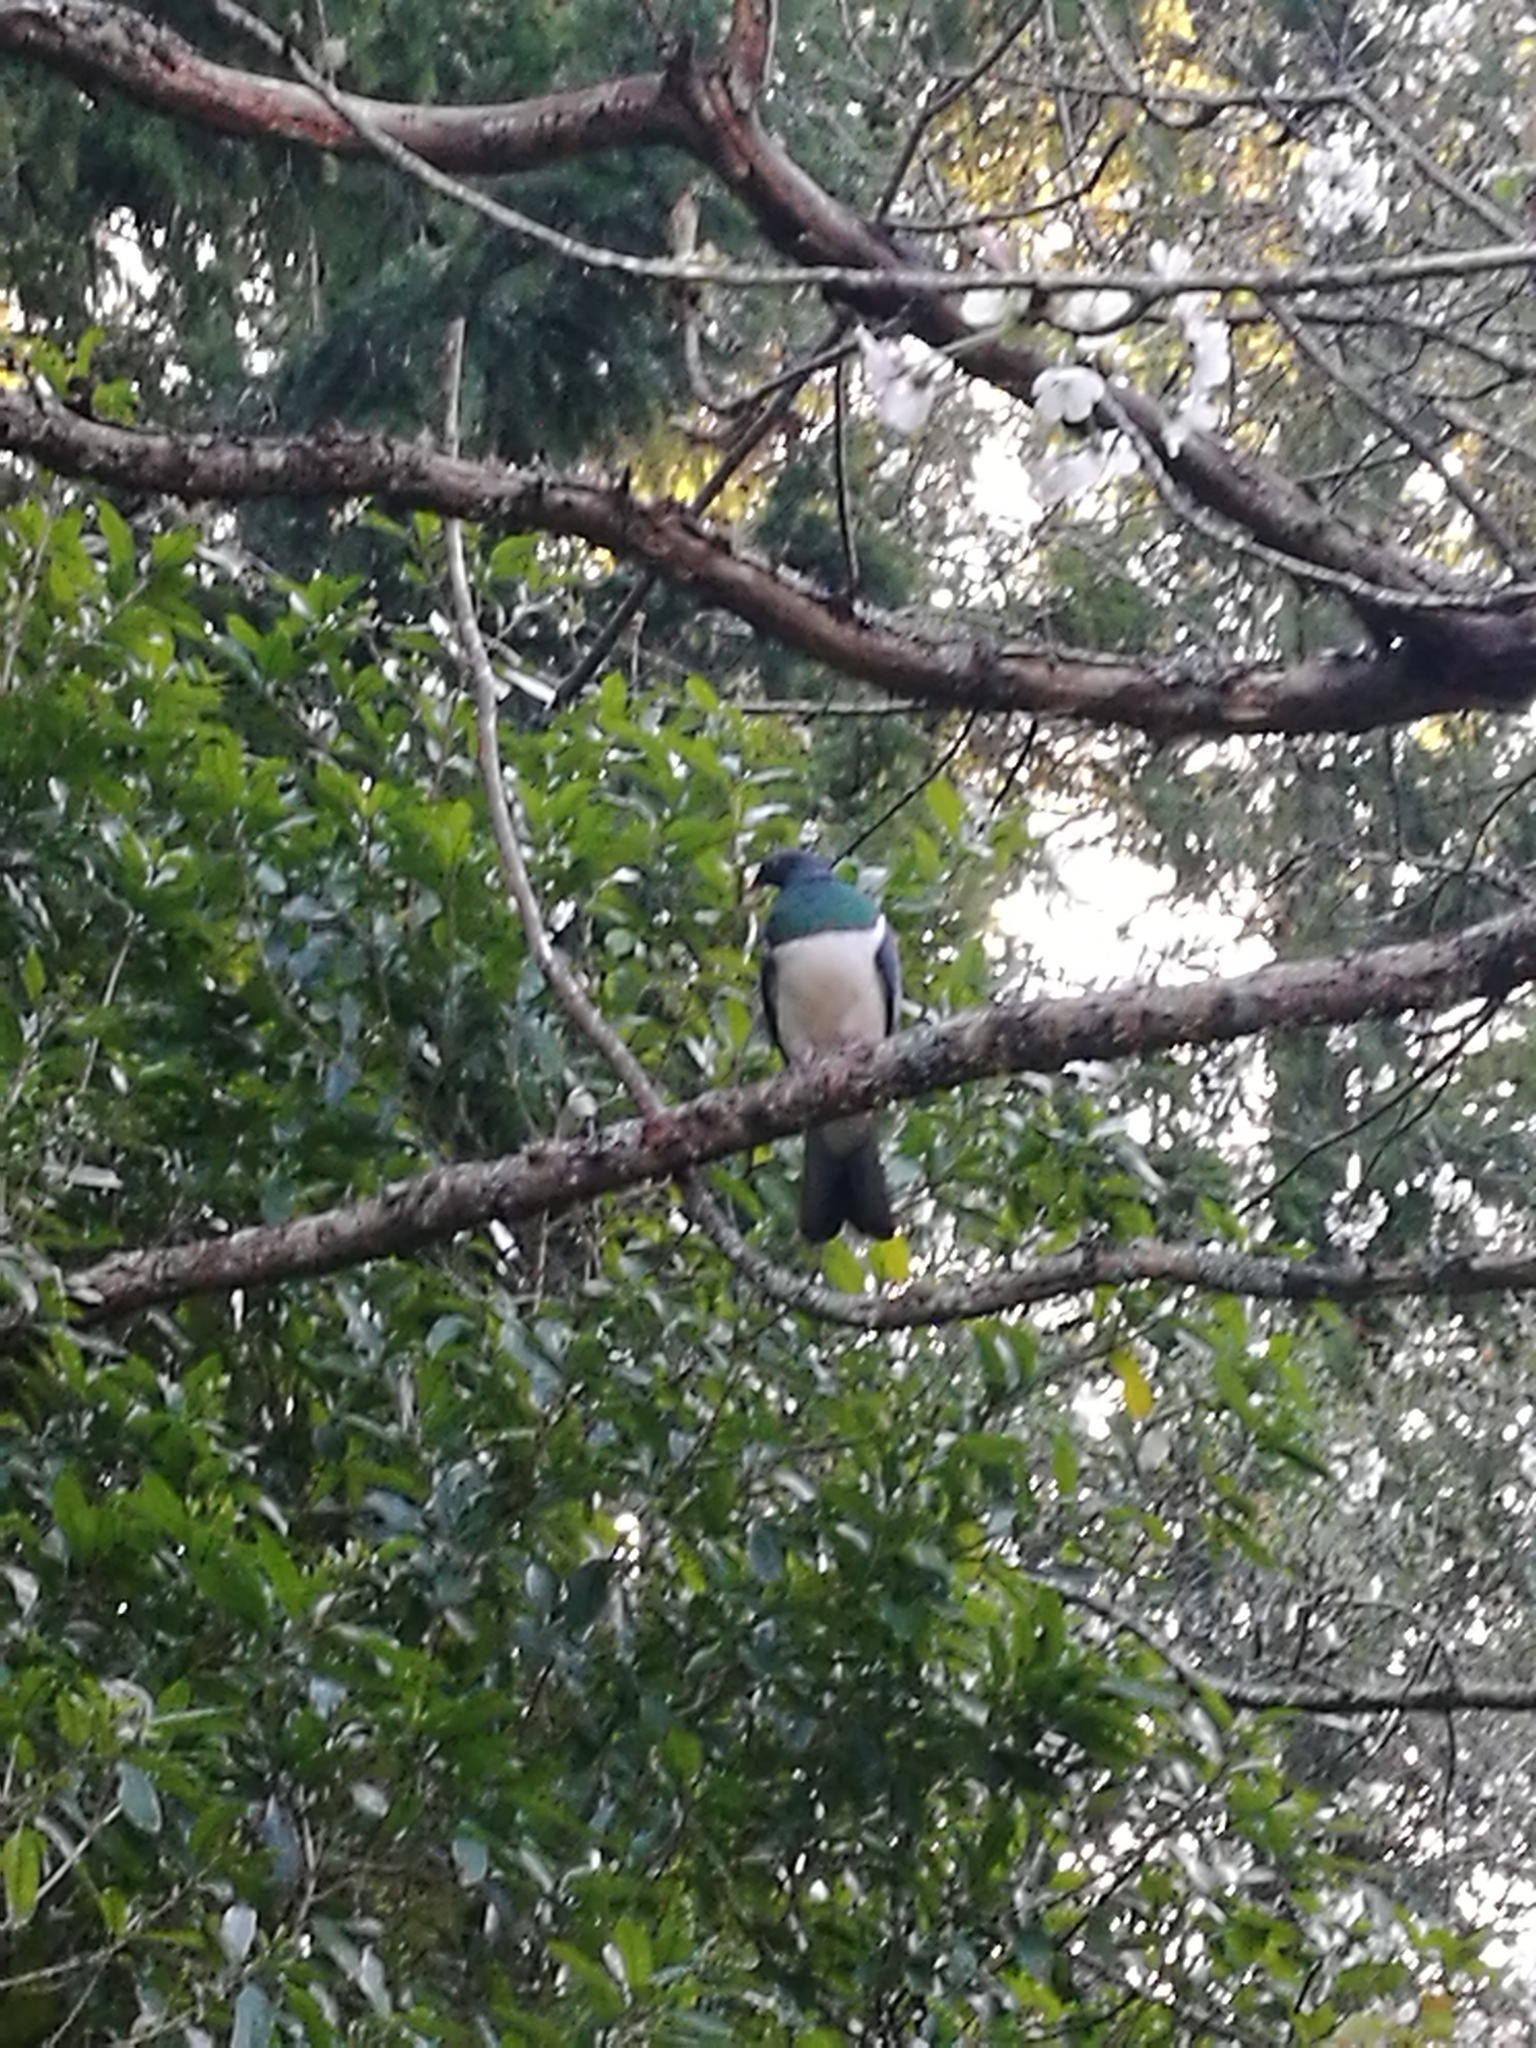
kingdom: Animalia
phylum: Chordata
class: Aves
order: Columbiformes
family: Columbidae
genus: Hemiphaga
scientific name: Hemiphaga novaeseelandiae
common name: New zealand pigeon
